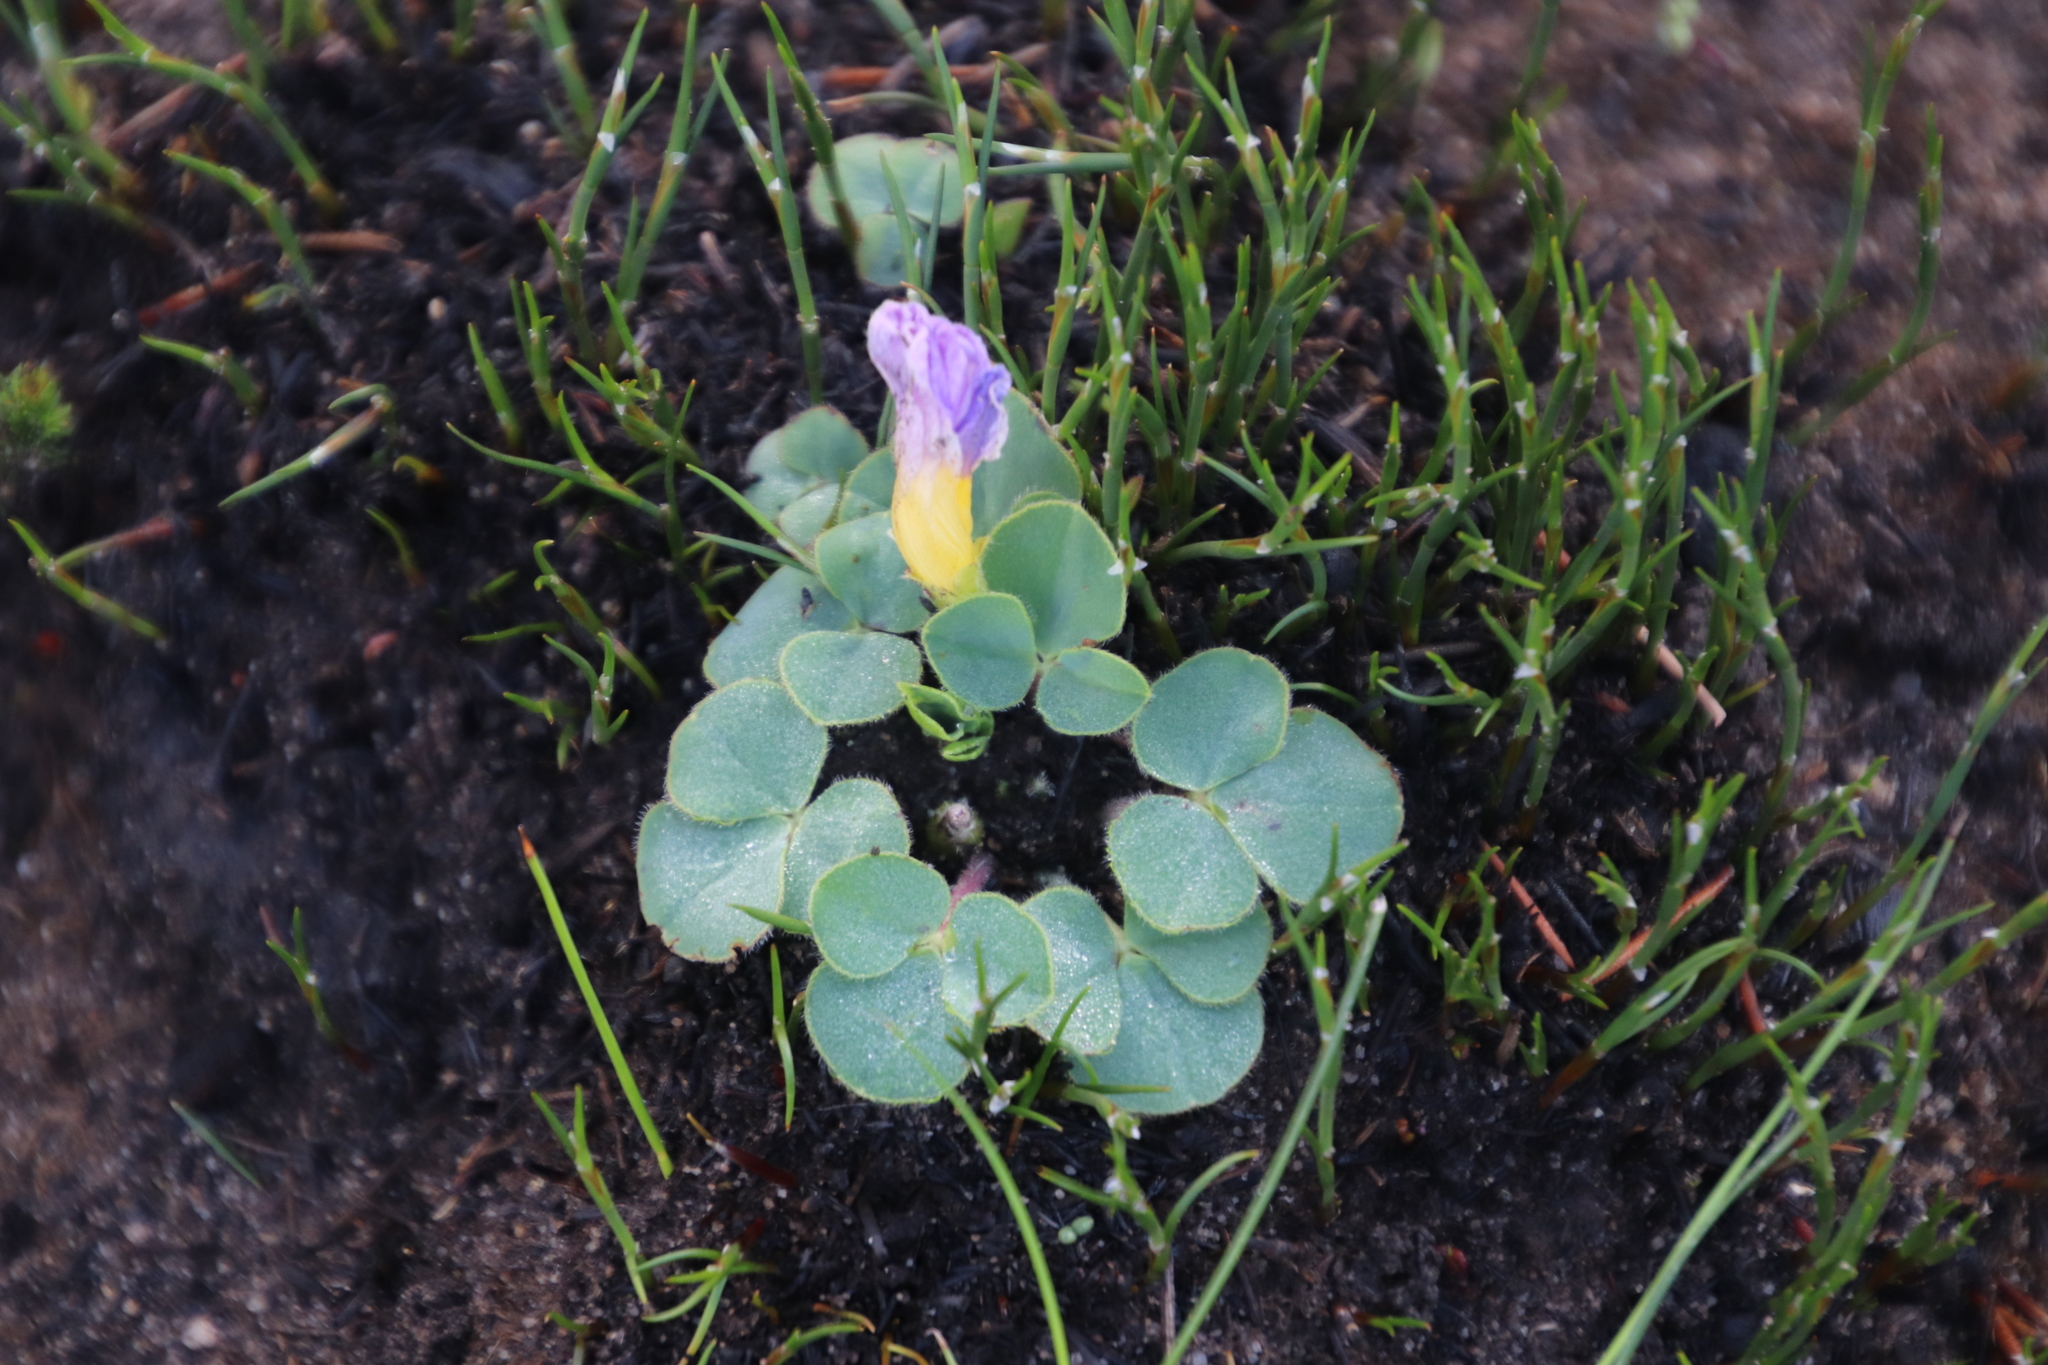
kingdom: Plantae
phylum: Tracheophyta
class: Magnoliopsida
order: Oxalidales
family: Oxalidaceae
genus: Oxalis
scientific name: Oxalis purpurea
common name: Purple woodsorrel
